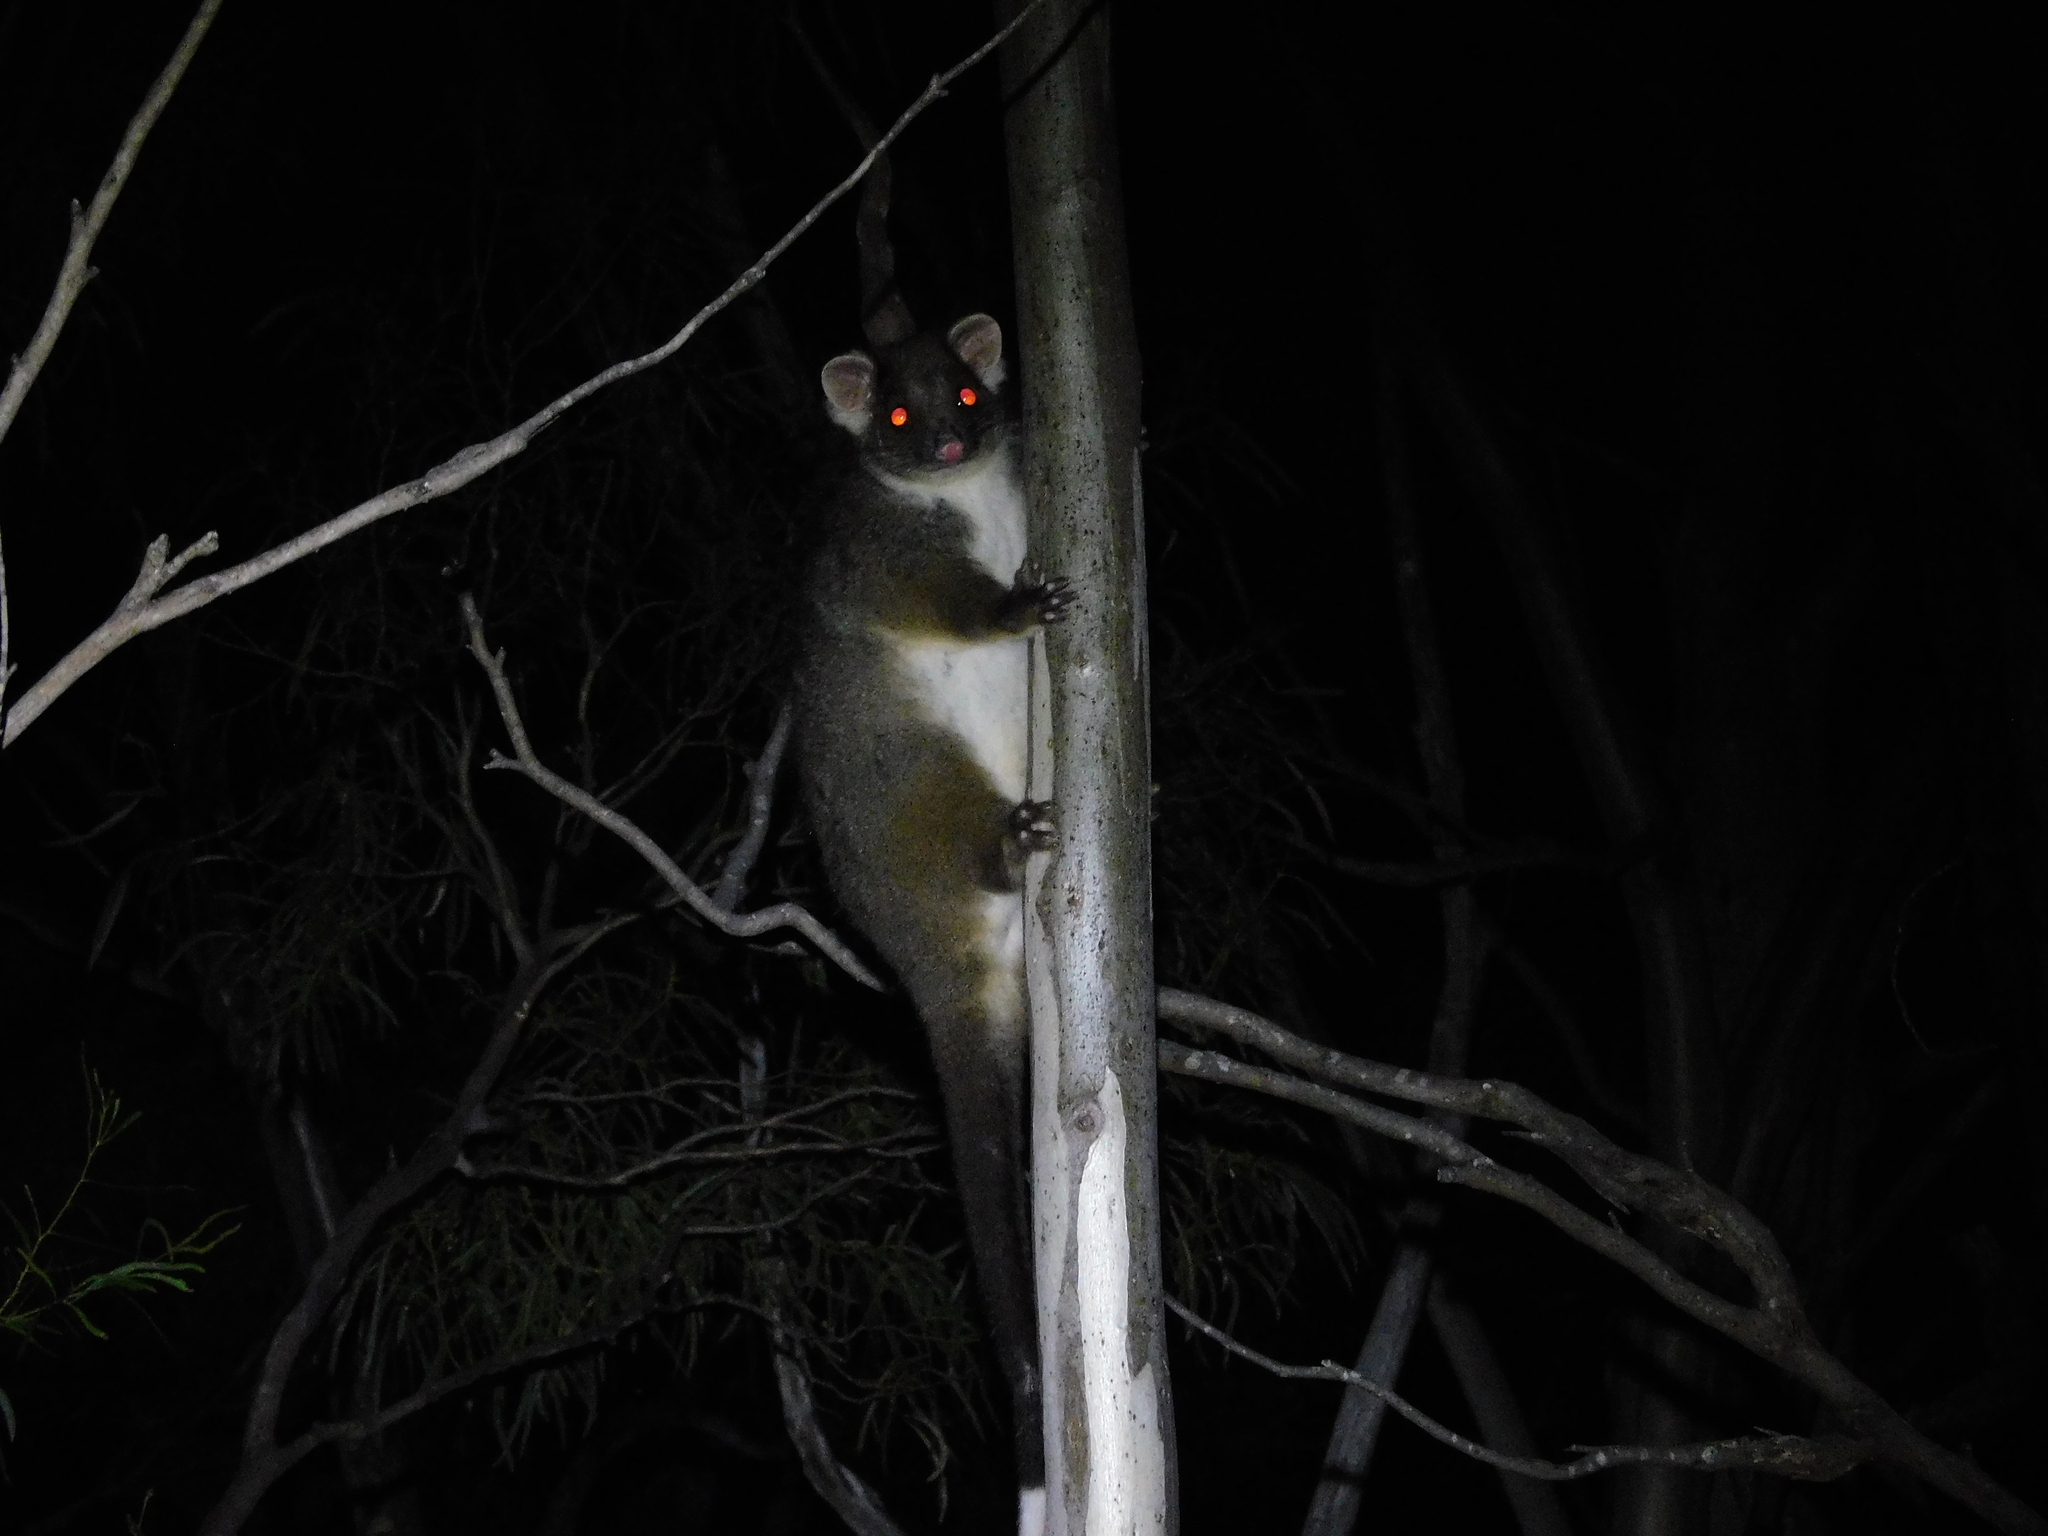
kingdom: Animalia
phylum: Chordata
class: Mammalia
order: Diprotodontia
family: Pseudocheiridae
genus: Pseudocheirus
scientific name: Pseudocheirus peregrinus
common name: Common ringtail possum
